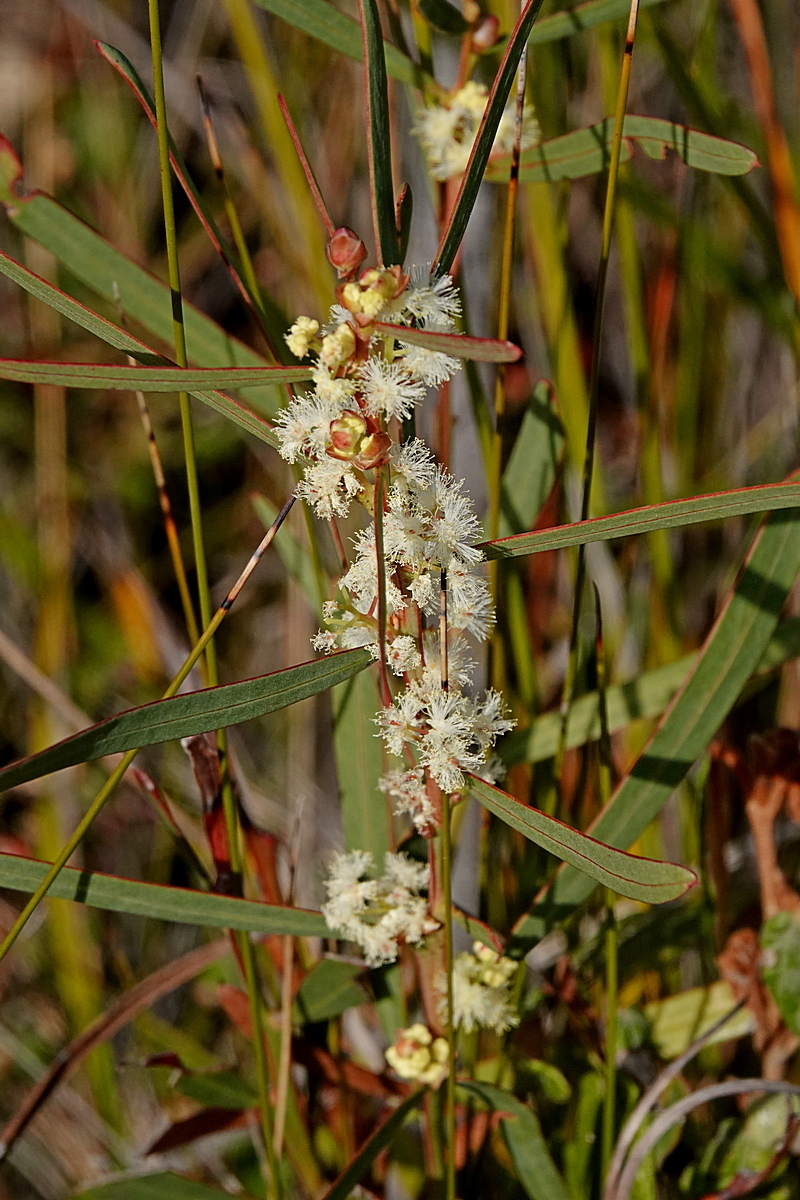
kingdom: Plantae
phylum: Tracheophyta
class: Magnoliopsida
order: Fabales
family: Fabaceae
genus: Acacia
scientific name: Acacia suaveolens
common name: Sweet acacia
